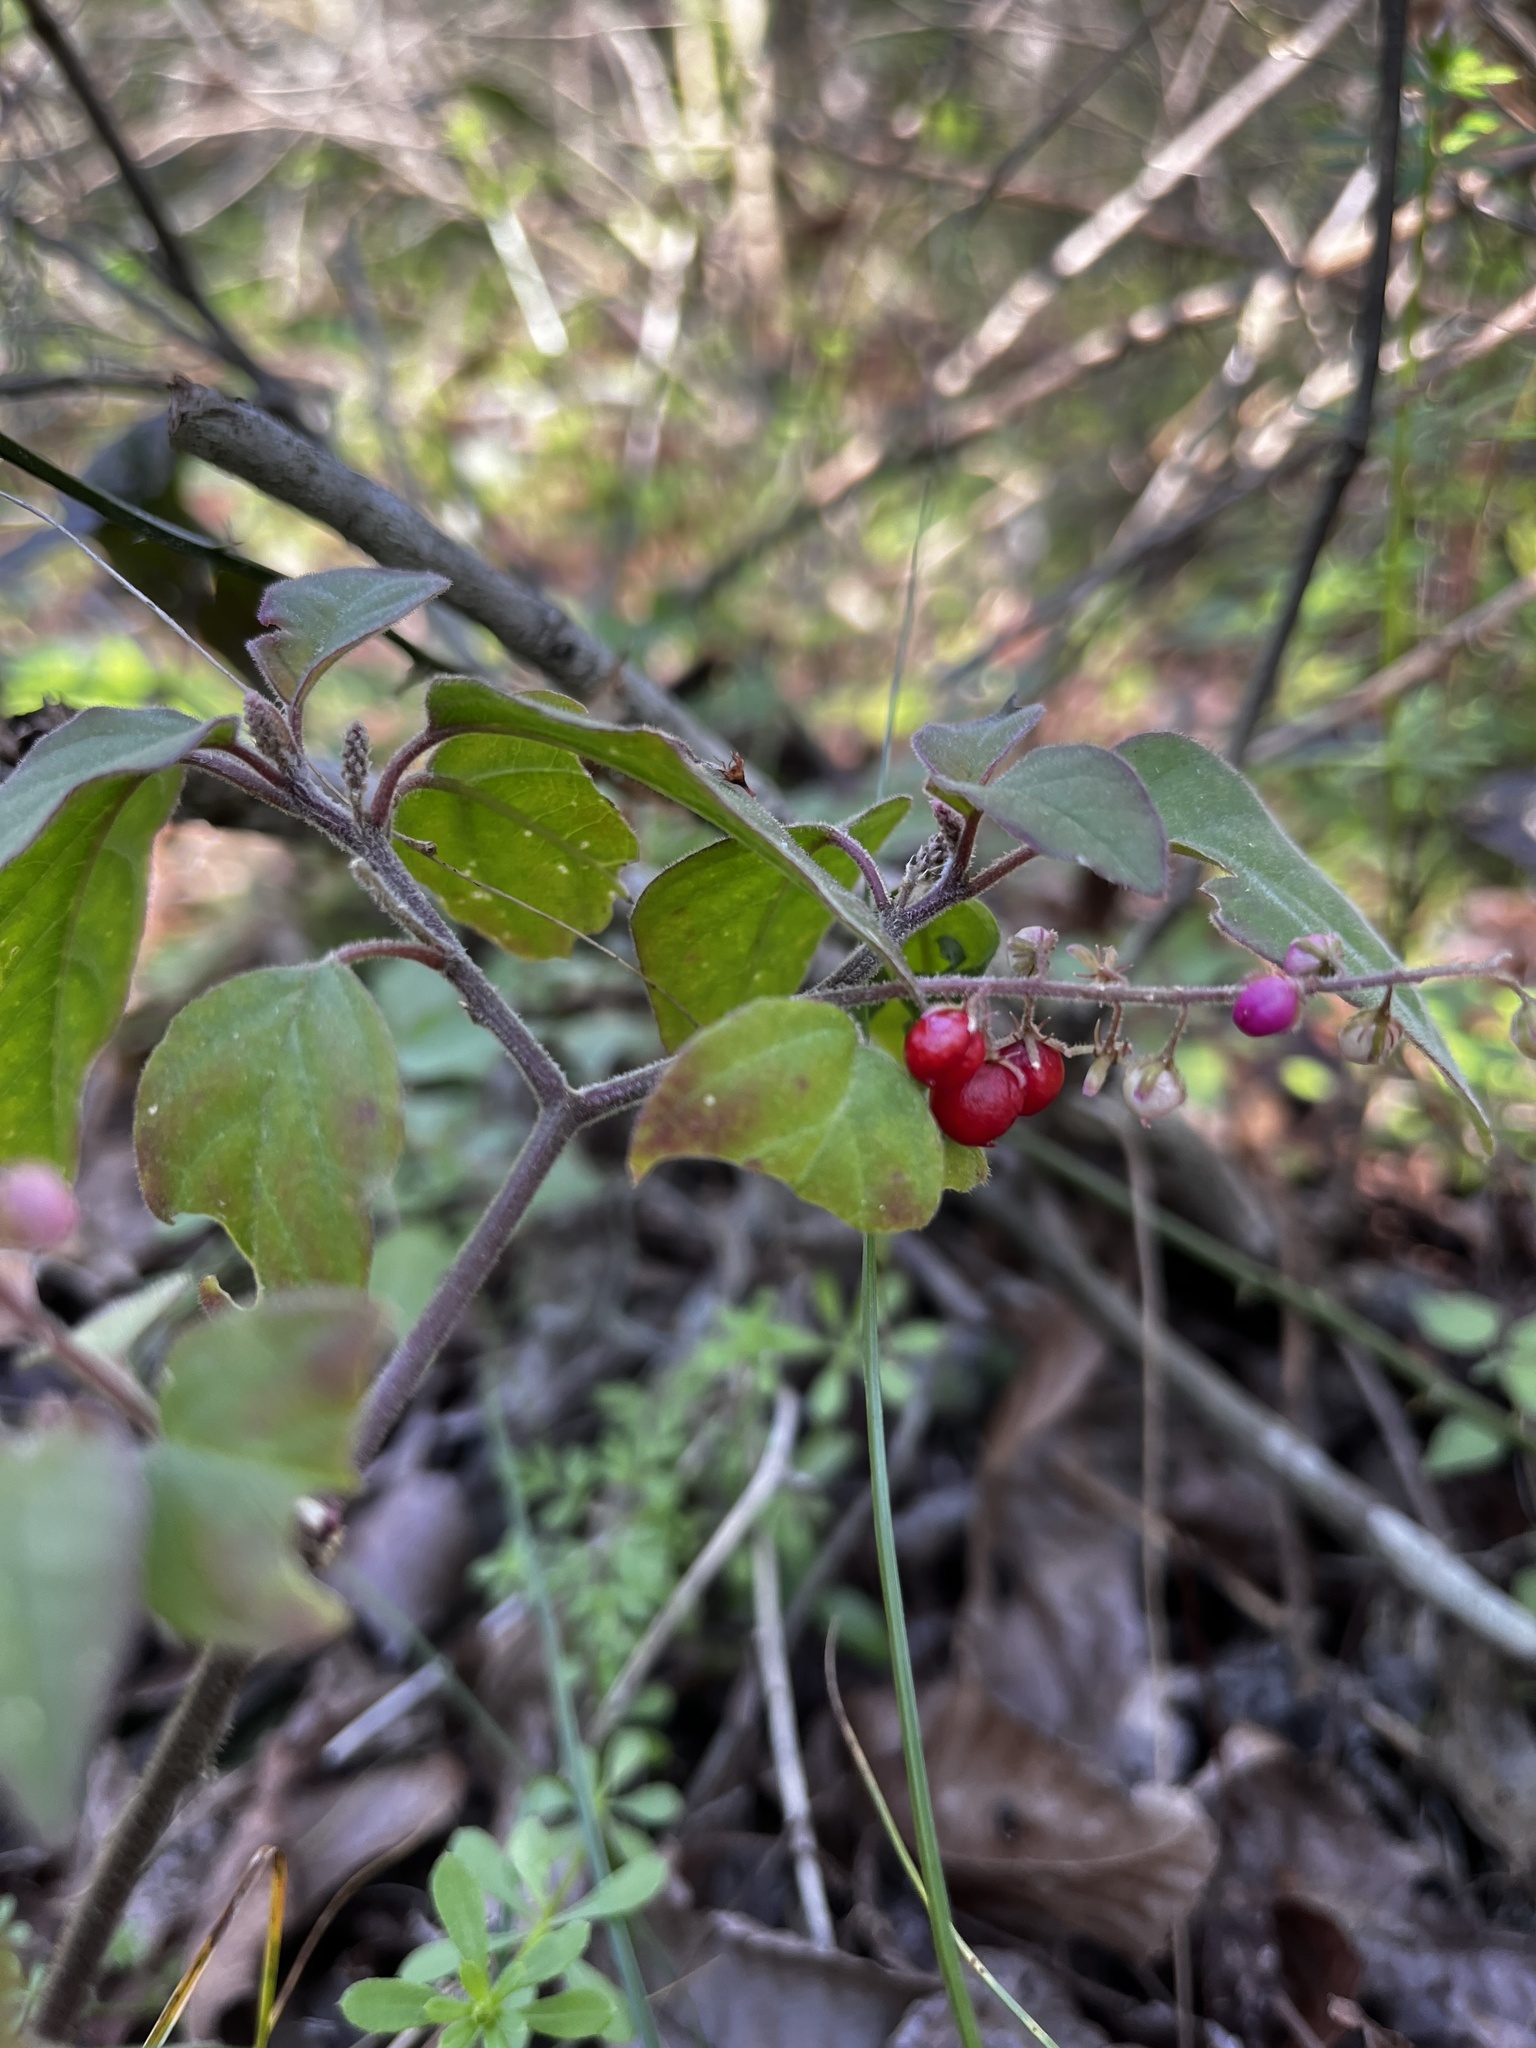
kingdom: Plantae
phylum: Tracheophyta
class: Magnoliopsida
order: Caryophyllales
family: Phytolaccaceae
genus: Rivina
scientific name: Rivina humilis
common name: Rougeplant
